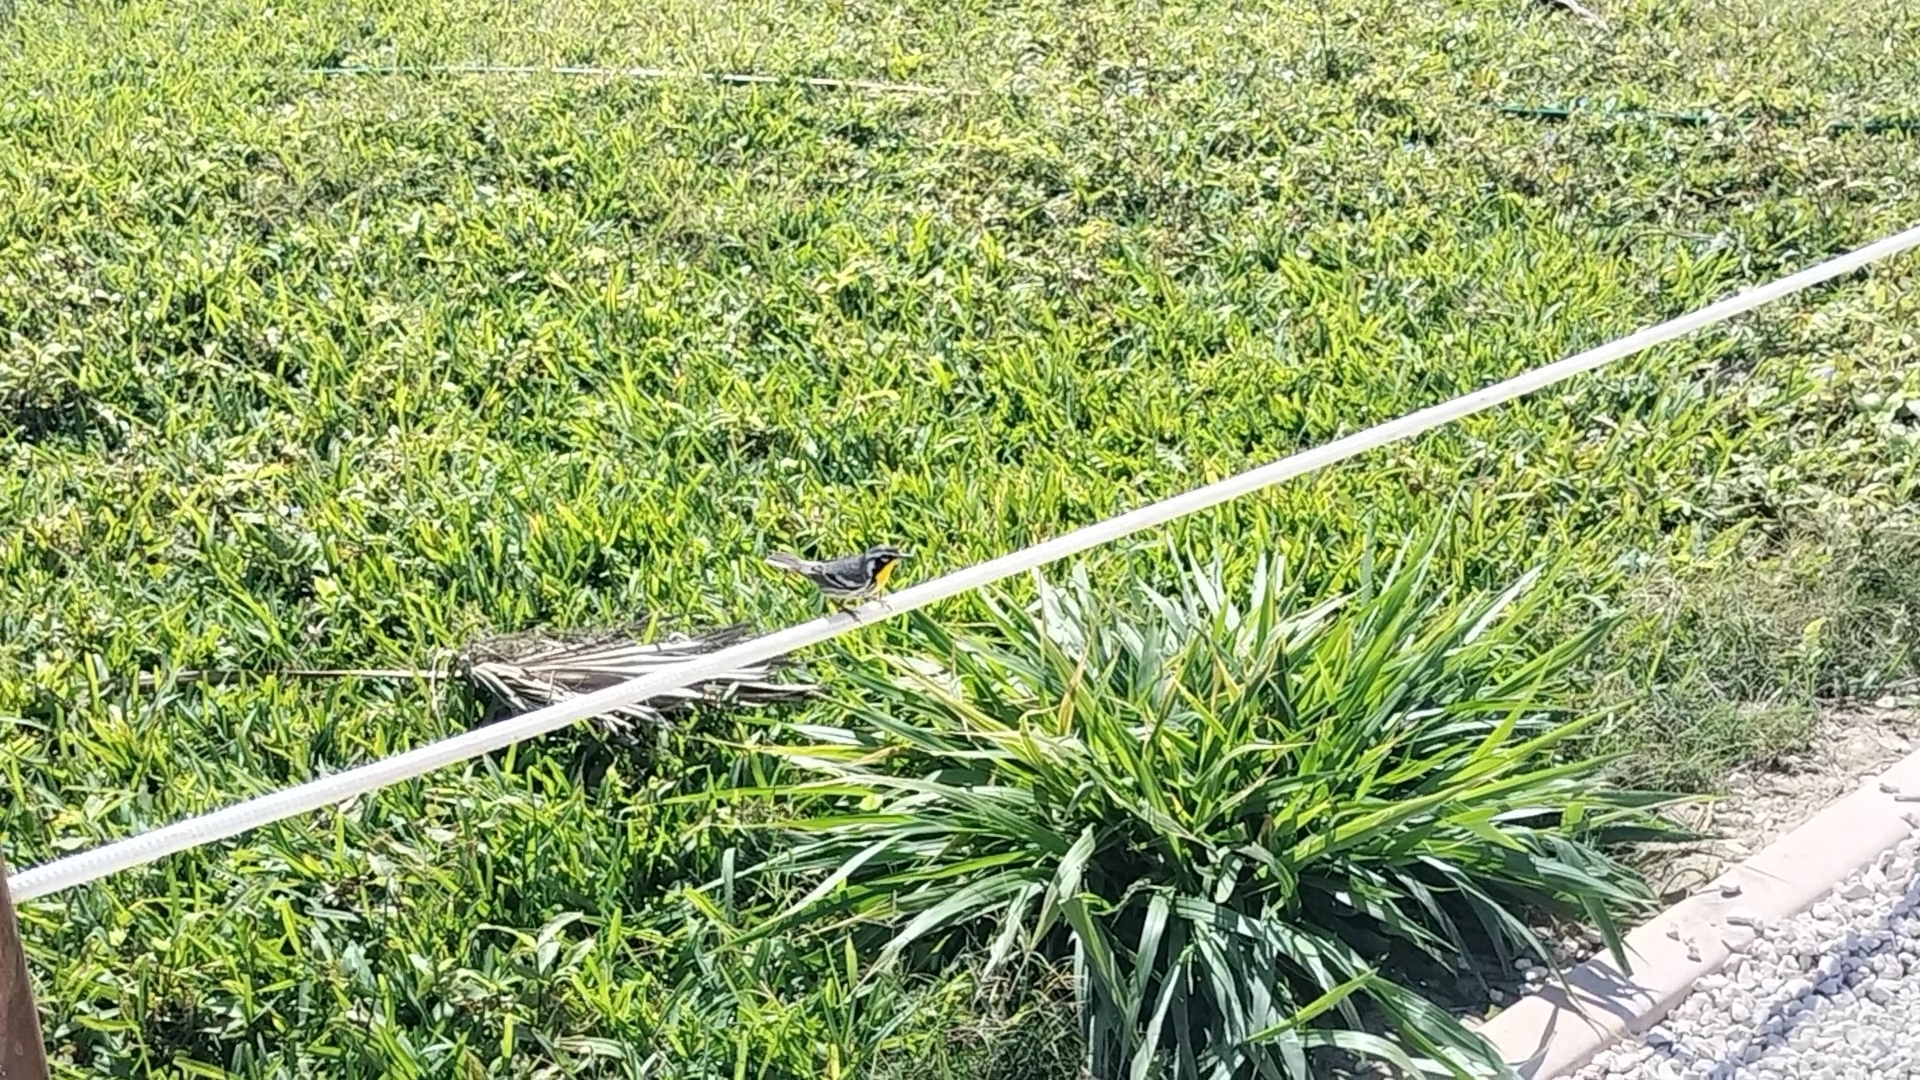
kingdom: Animalia
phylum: Chordata
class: Aves
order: Passeriformes
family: Parulidae
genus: Setophaga
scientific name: Setophaga dominica
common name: Yellow-throated warbler
